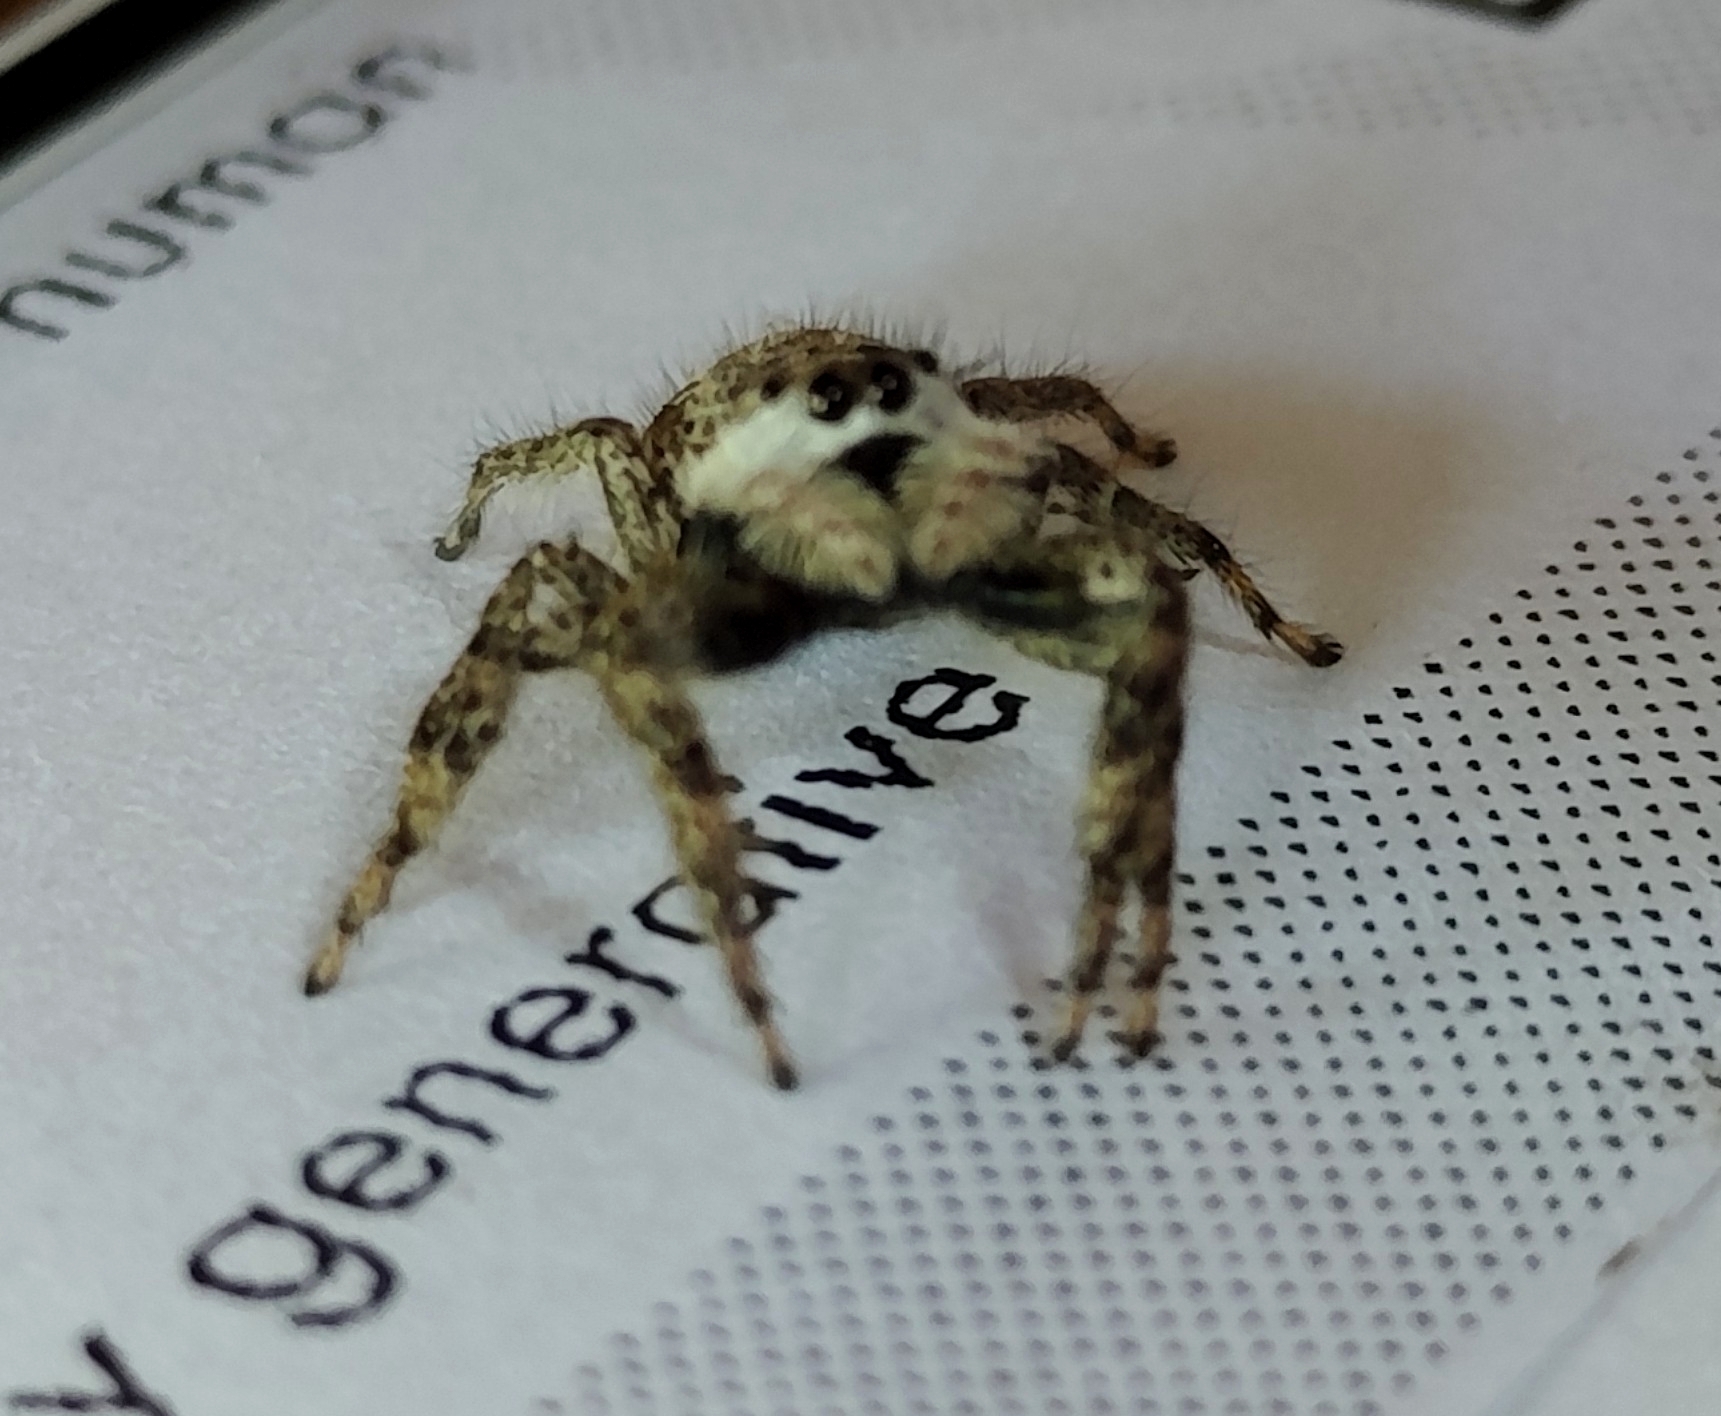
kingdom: Animalia
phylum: Arthropoda
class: Arachnida
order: Araneae
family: Salticidae
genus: Platycryptus
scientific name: Platycryptus undatus
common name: Tan jumping spider
